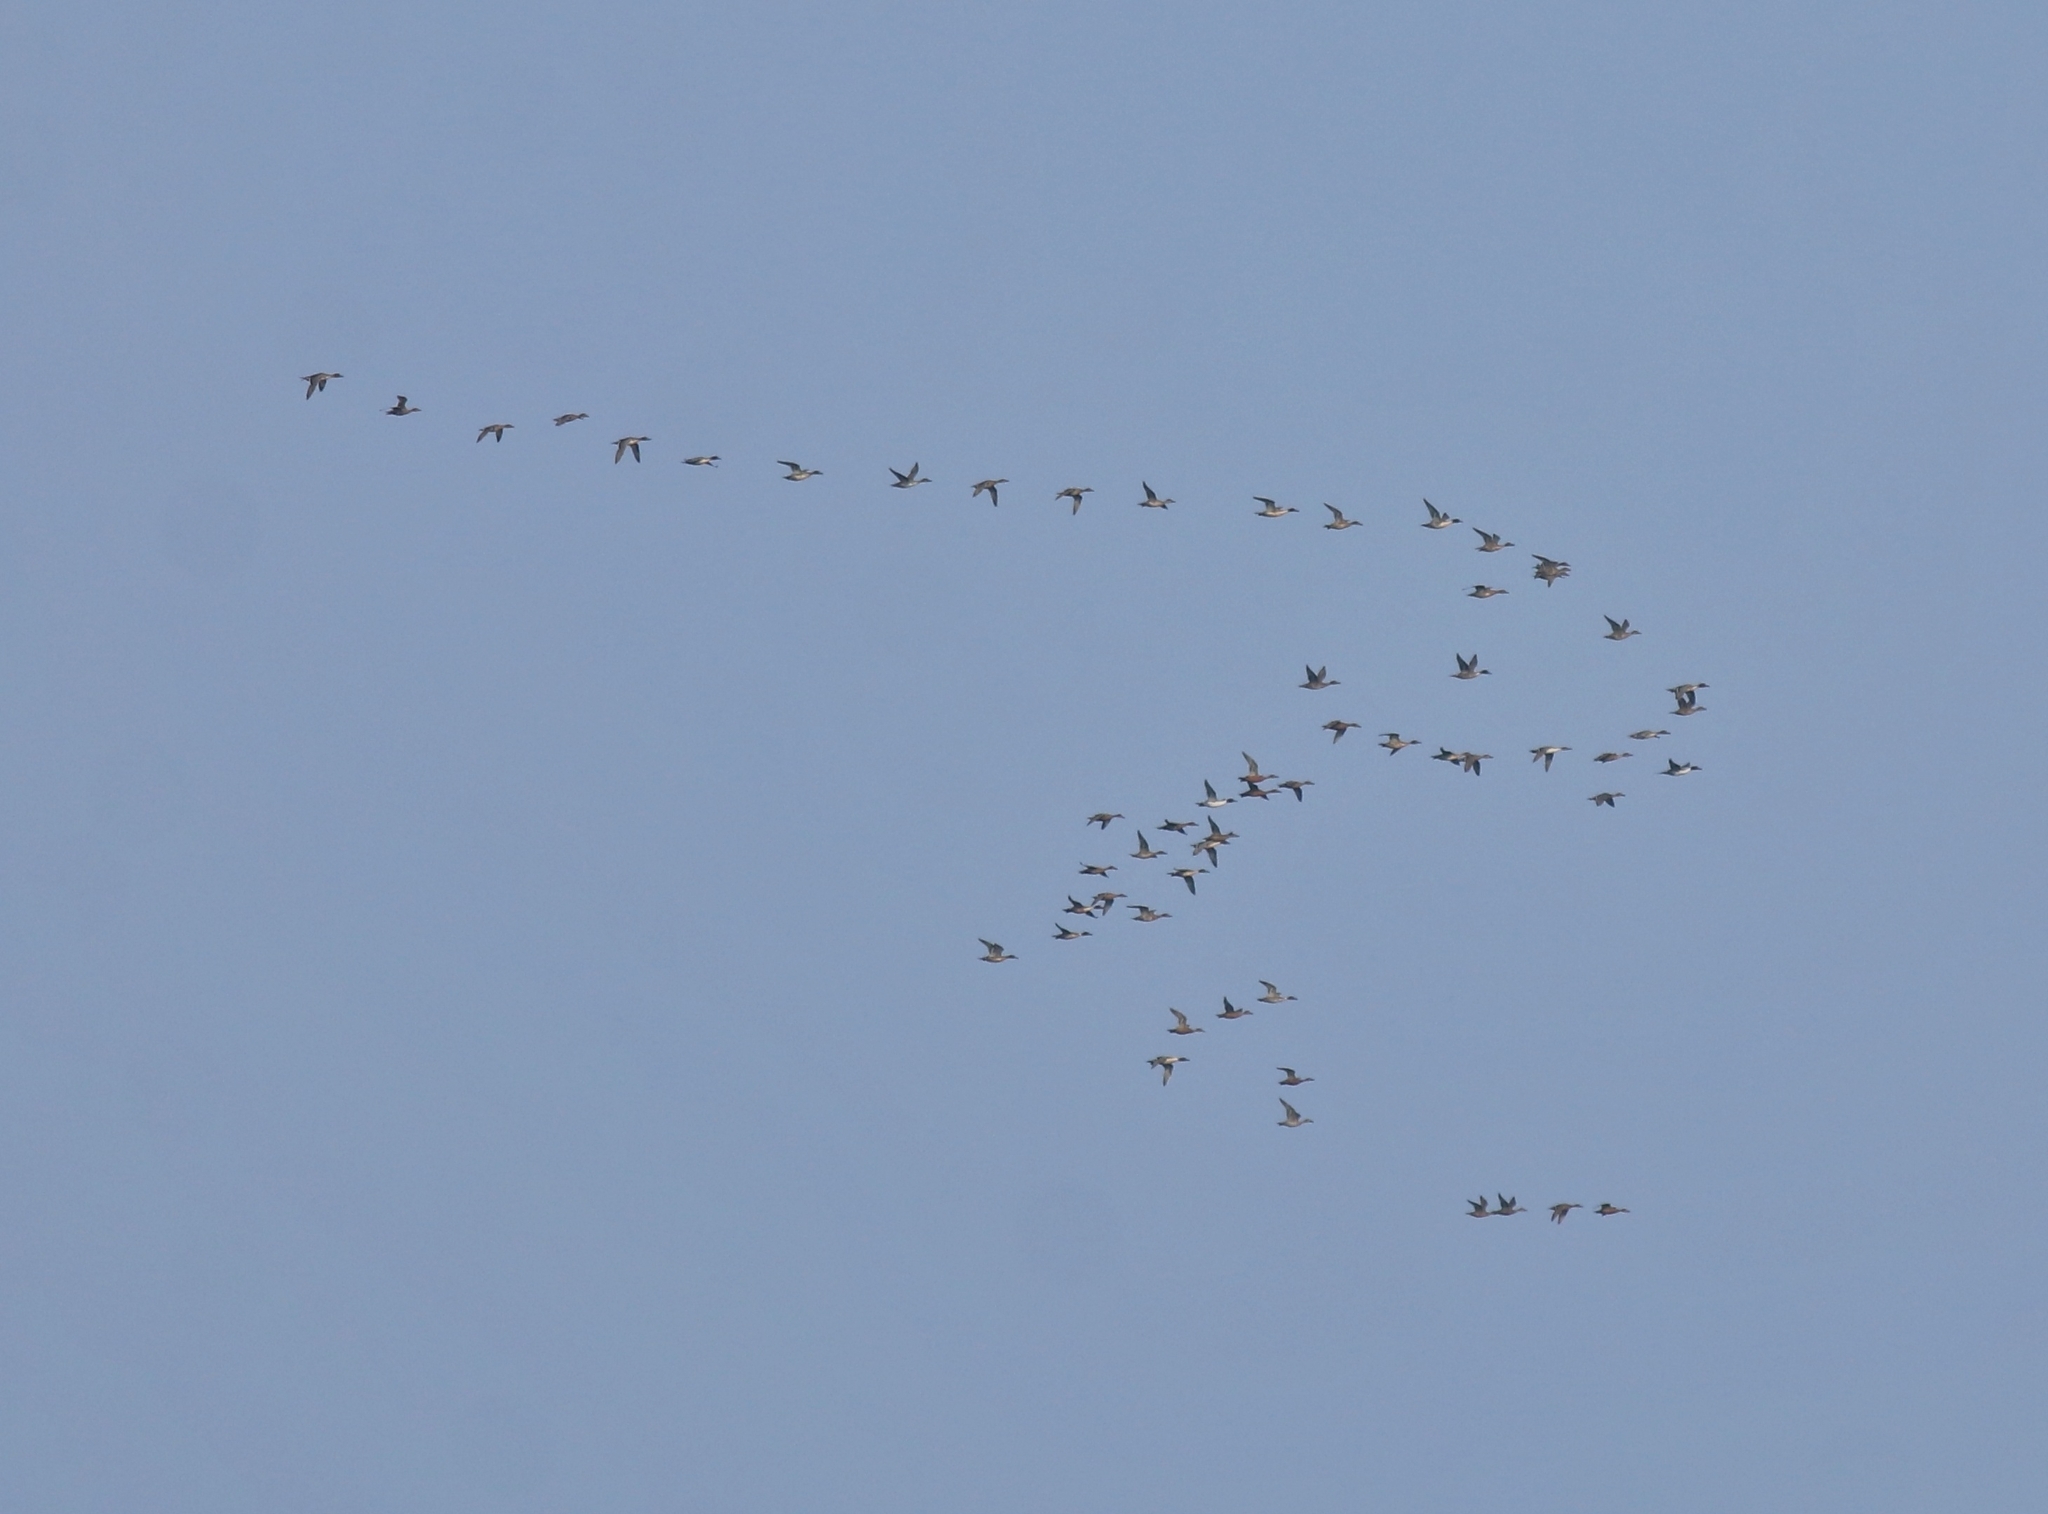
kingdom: Animalia
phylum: Chordata
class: Aves
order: Anseriformes
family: Anatidae
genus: Anas
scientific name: Anas acuta
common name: Northern pintail
